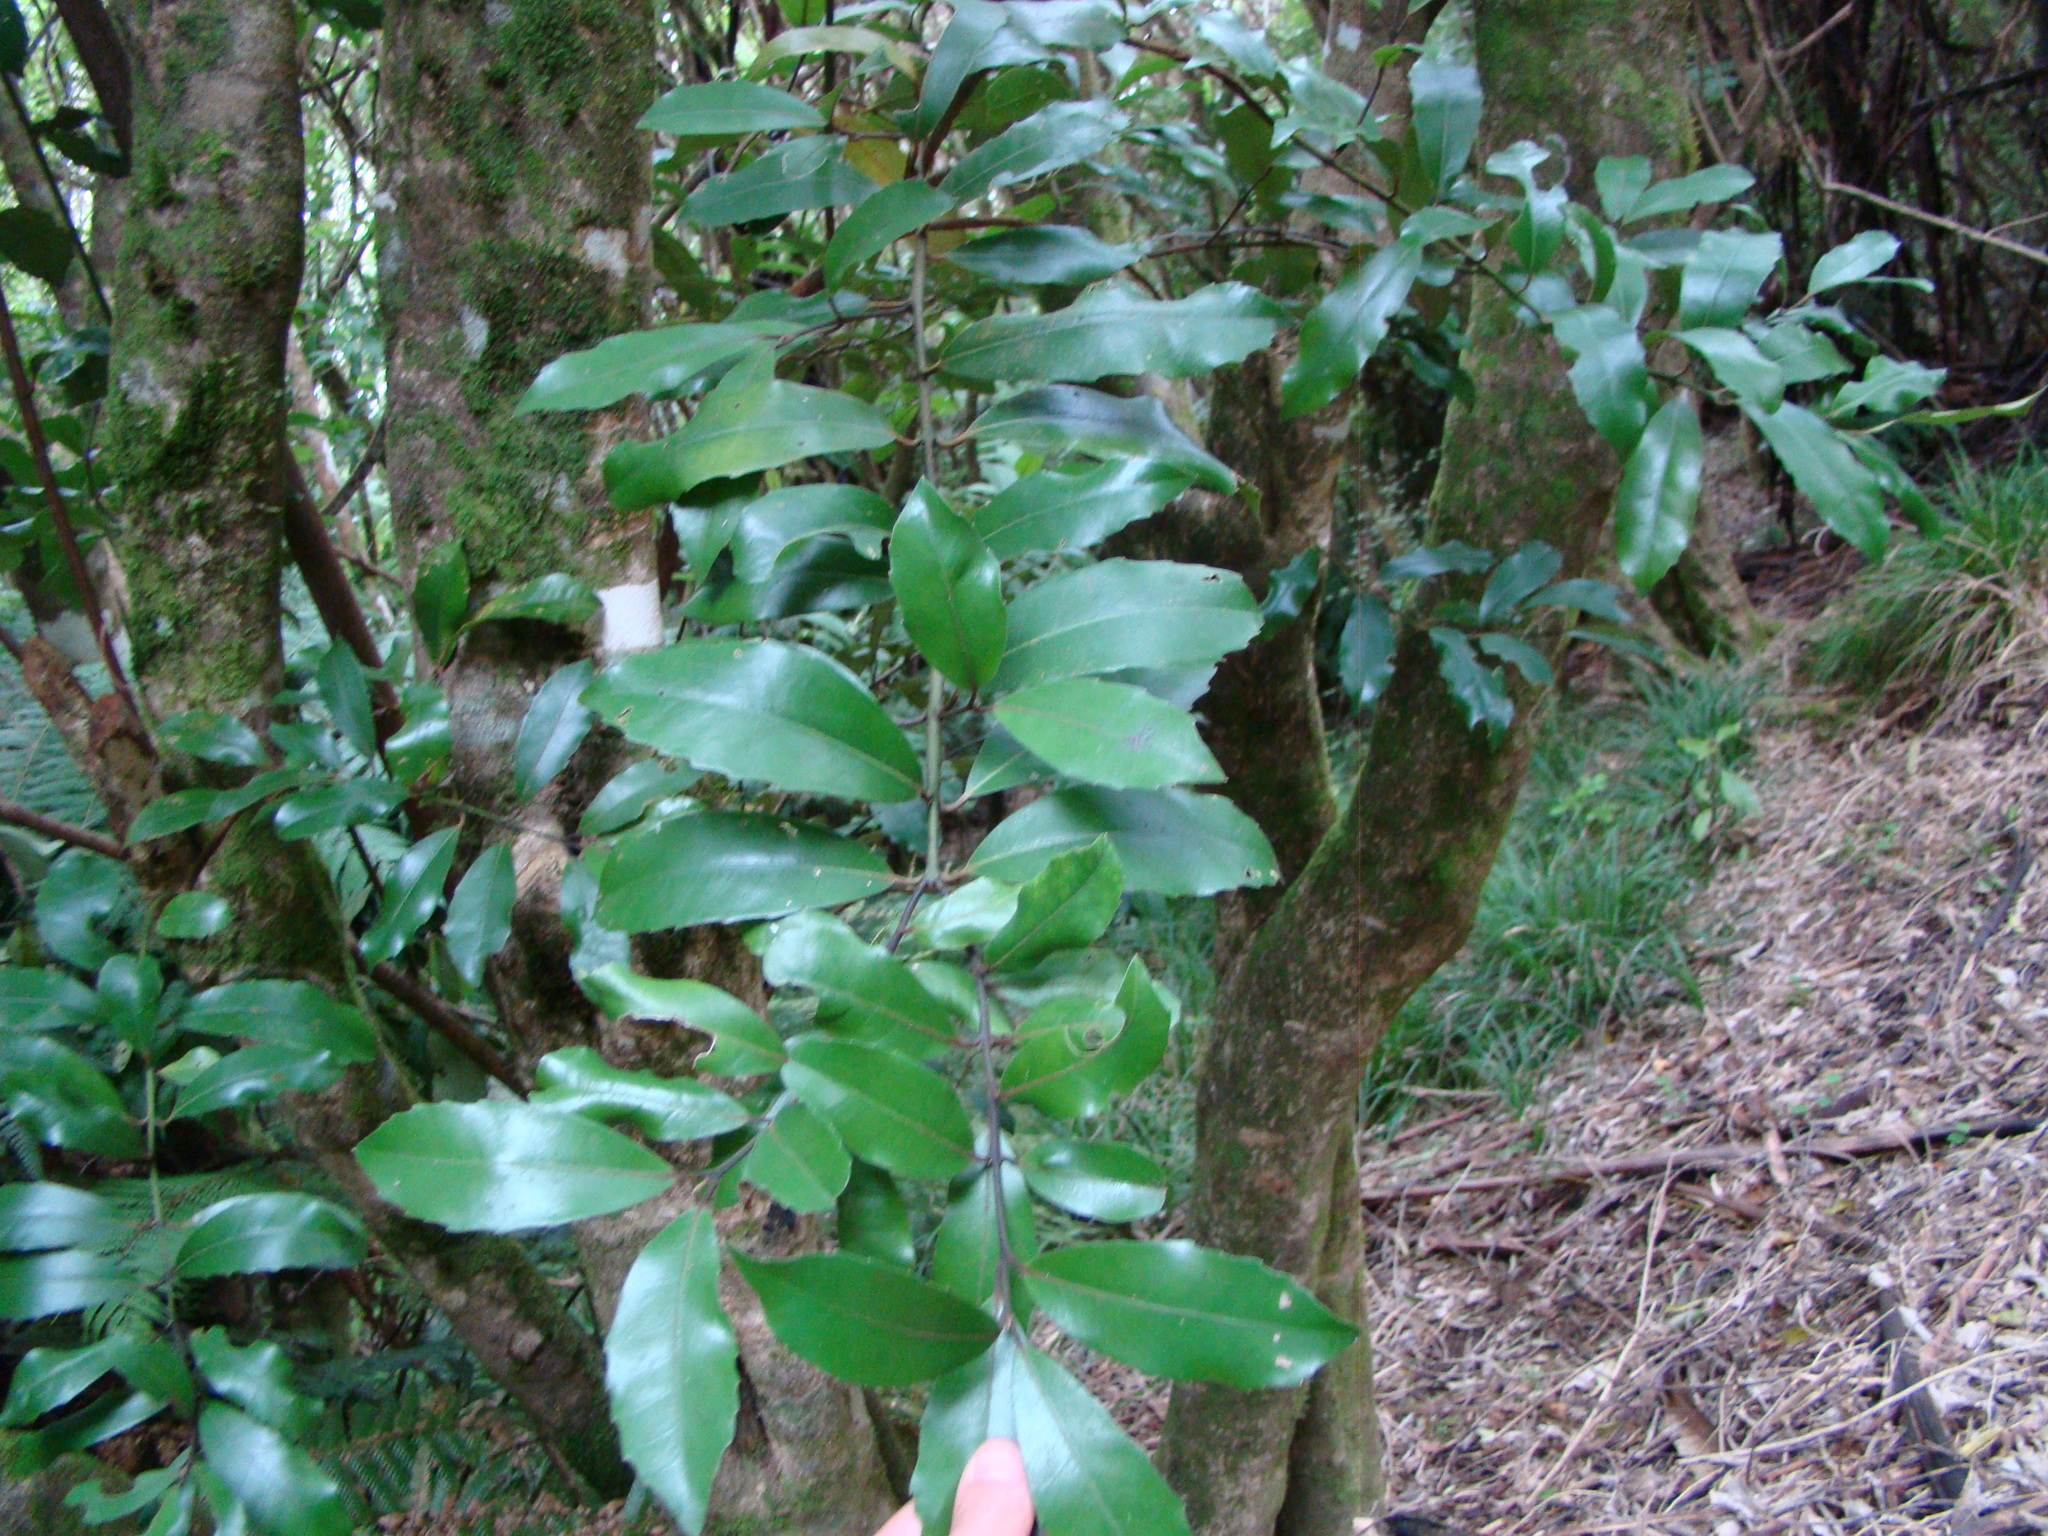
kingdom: Plantae
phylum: Tracheophyta
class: Magnoliopsida
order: Laurales
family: Monimiaceae
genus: Hedycarya
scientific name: Hedycarya arborea
